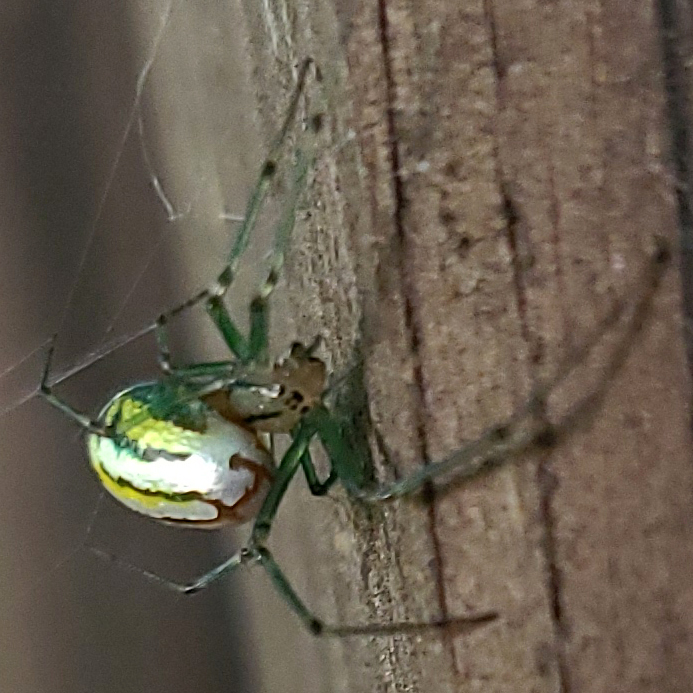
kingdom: Animalia
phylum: Arthropoda
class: Arachnida
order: Araneae
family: Tetragnathidae
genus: Leucauge
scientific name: Leucauge venusta
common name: Longjawed orb weavers
